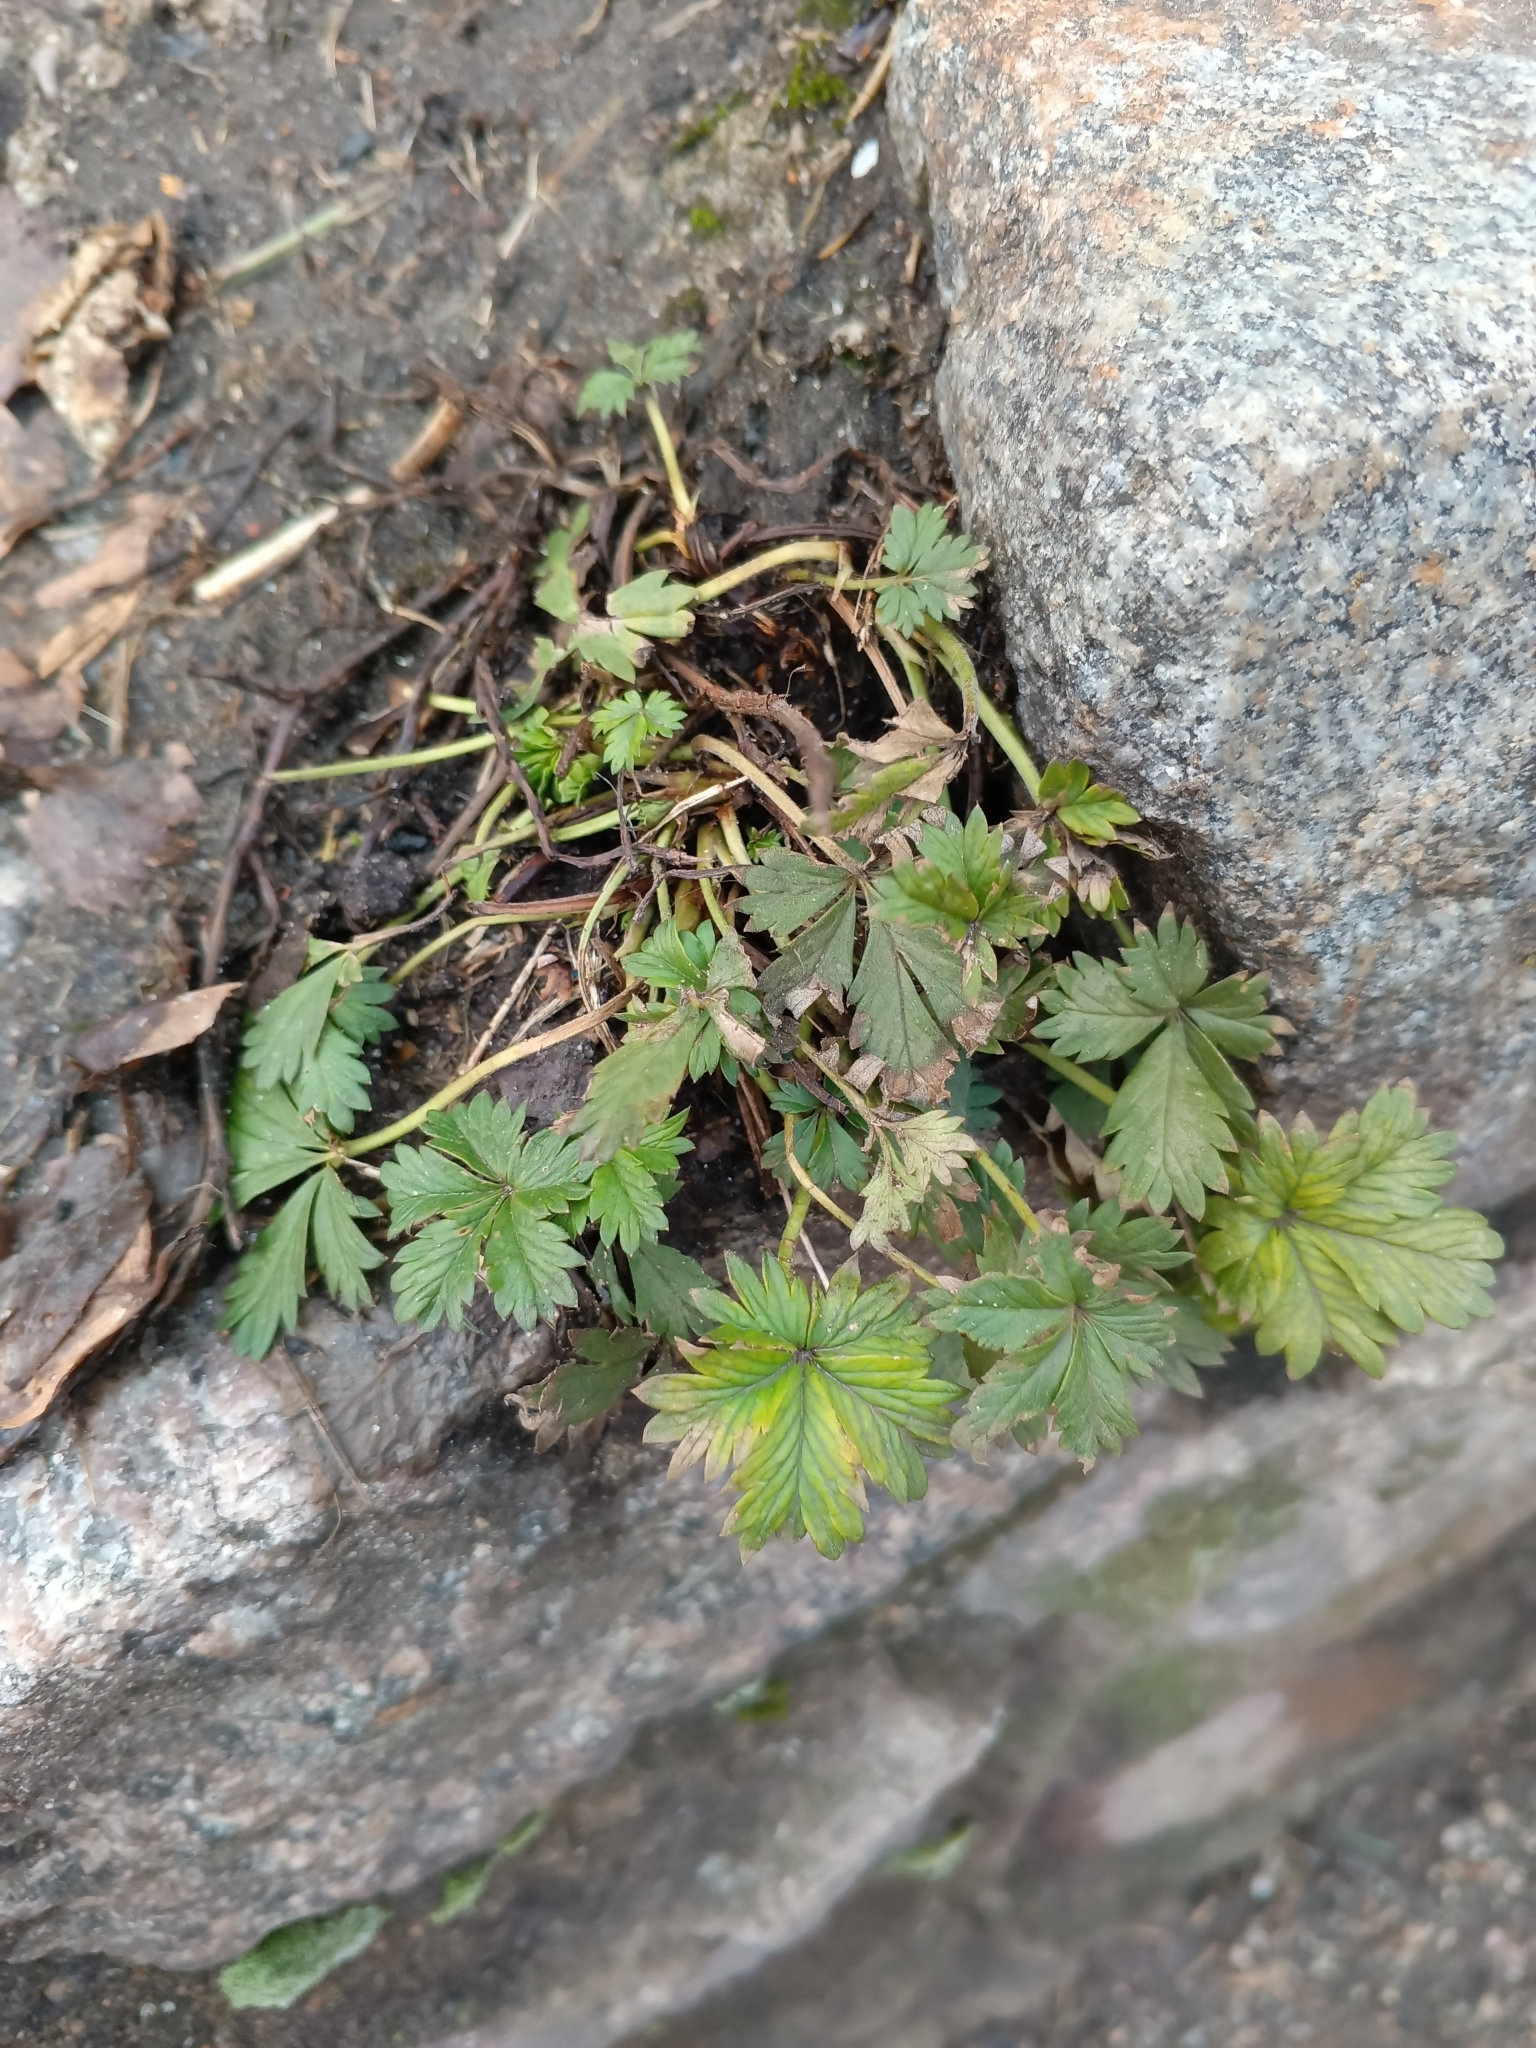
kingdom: Plantae
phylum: Tracheophyta
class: Magnoliopsida
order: Rosales
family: Rosaceae
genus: Potentilla
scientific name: Potentilla argentea
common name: Hoary cinquefoil
